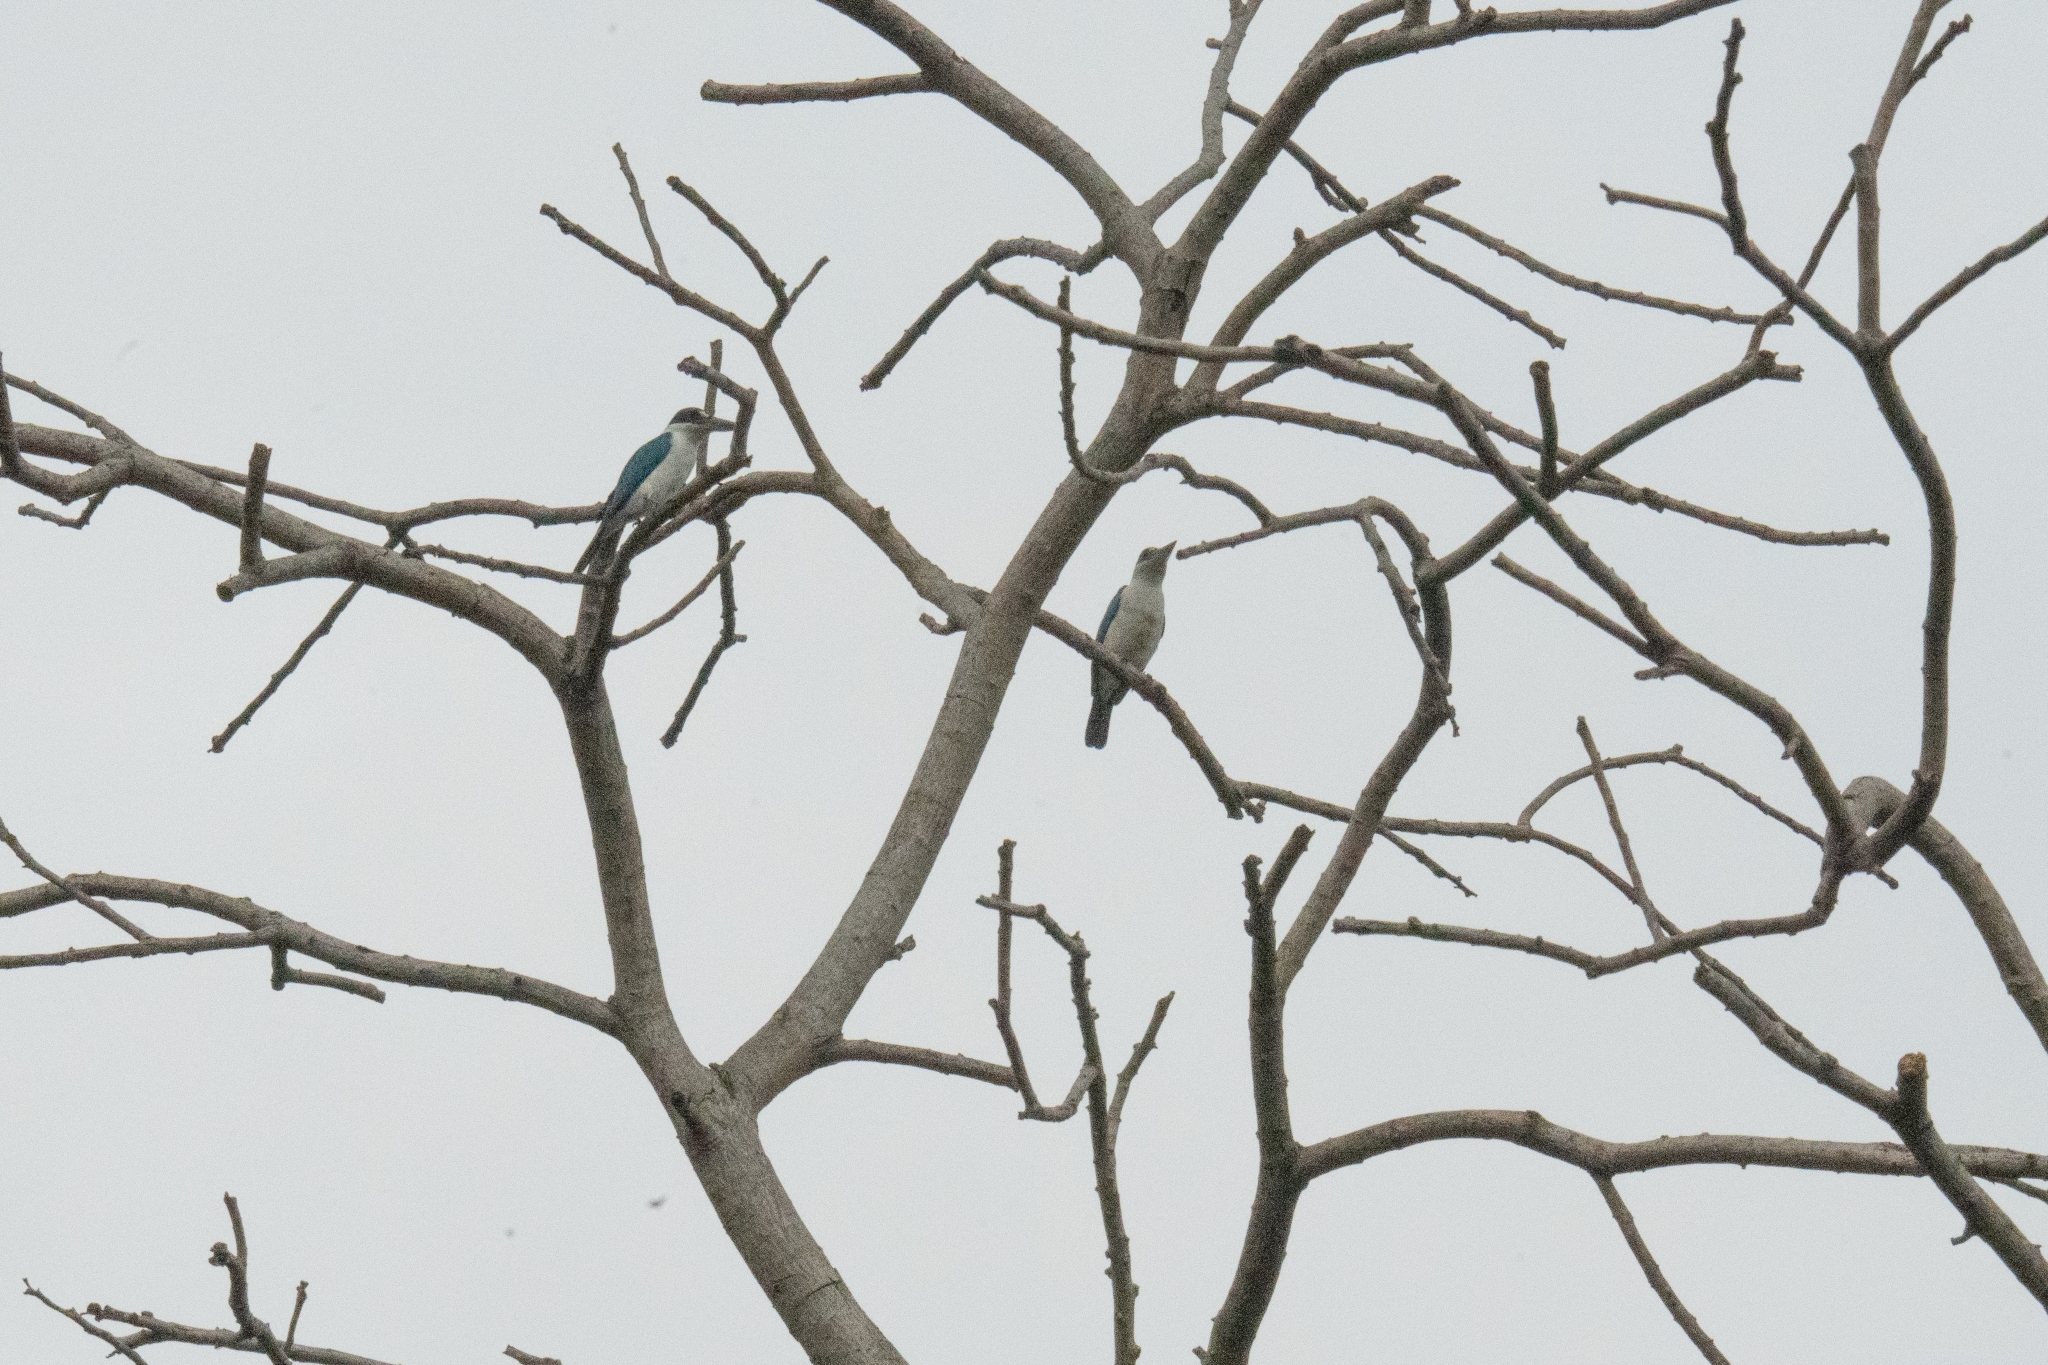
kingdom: Animalia
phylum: Chordata
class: Aves
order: Coraciiformes
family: Alcedinidae
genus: Todiramphus
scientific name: Todiramphus chloris
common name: Collared kingfisher
